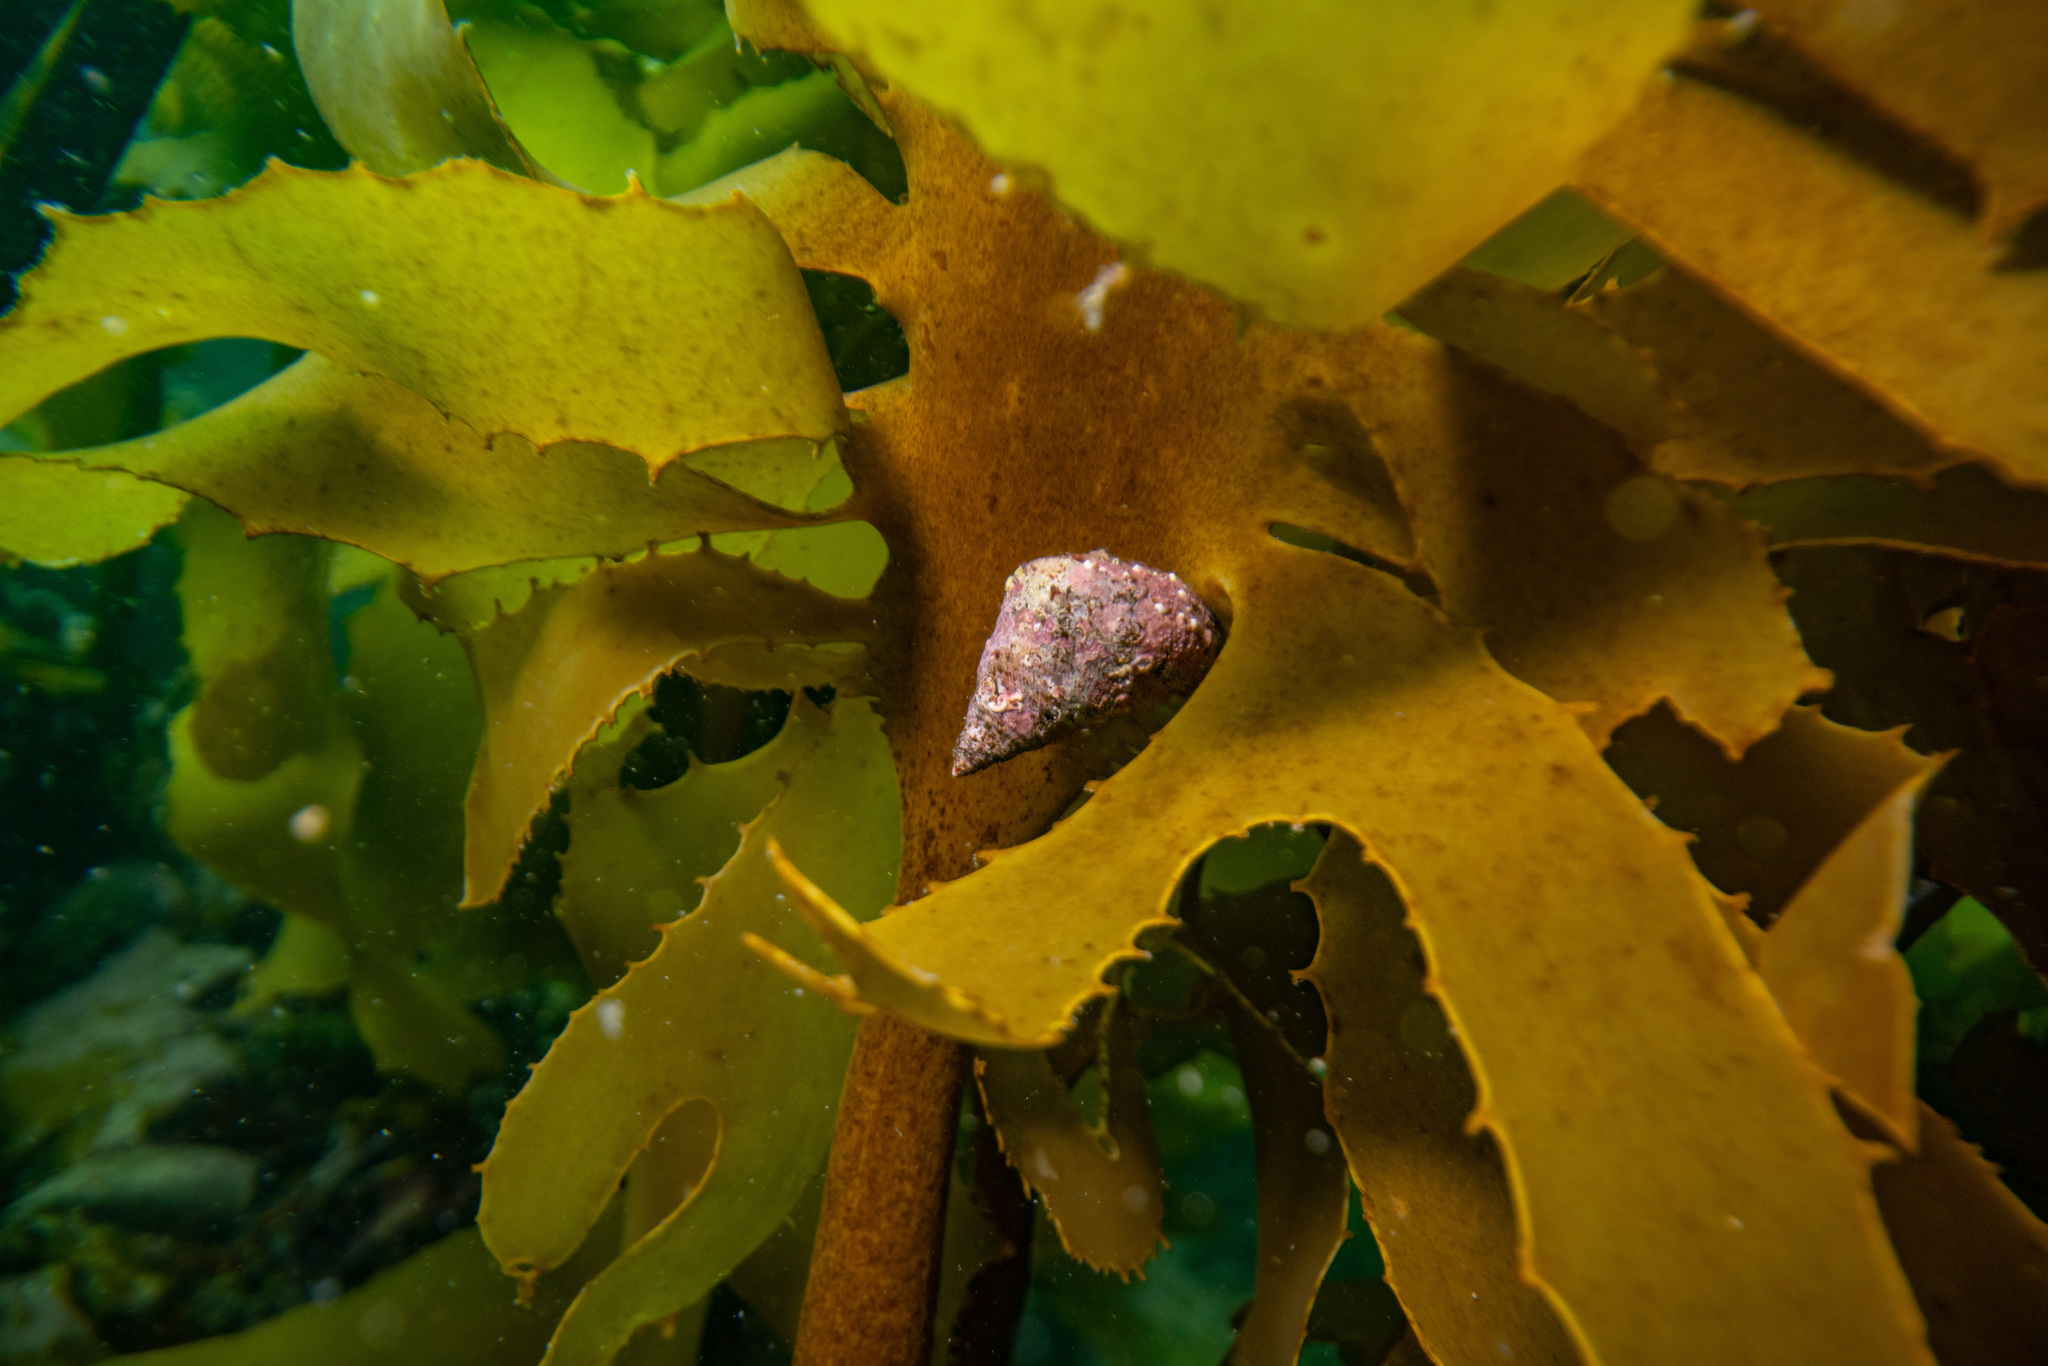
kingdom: Animalia
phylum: Mollusca
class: Gastropoda
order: Trochida
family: Trochidae
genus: Micrelenchus
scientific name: Micrelenchus purpureus
